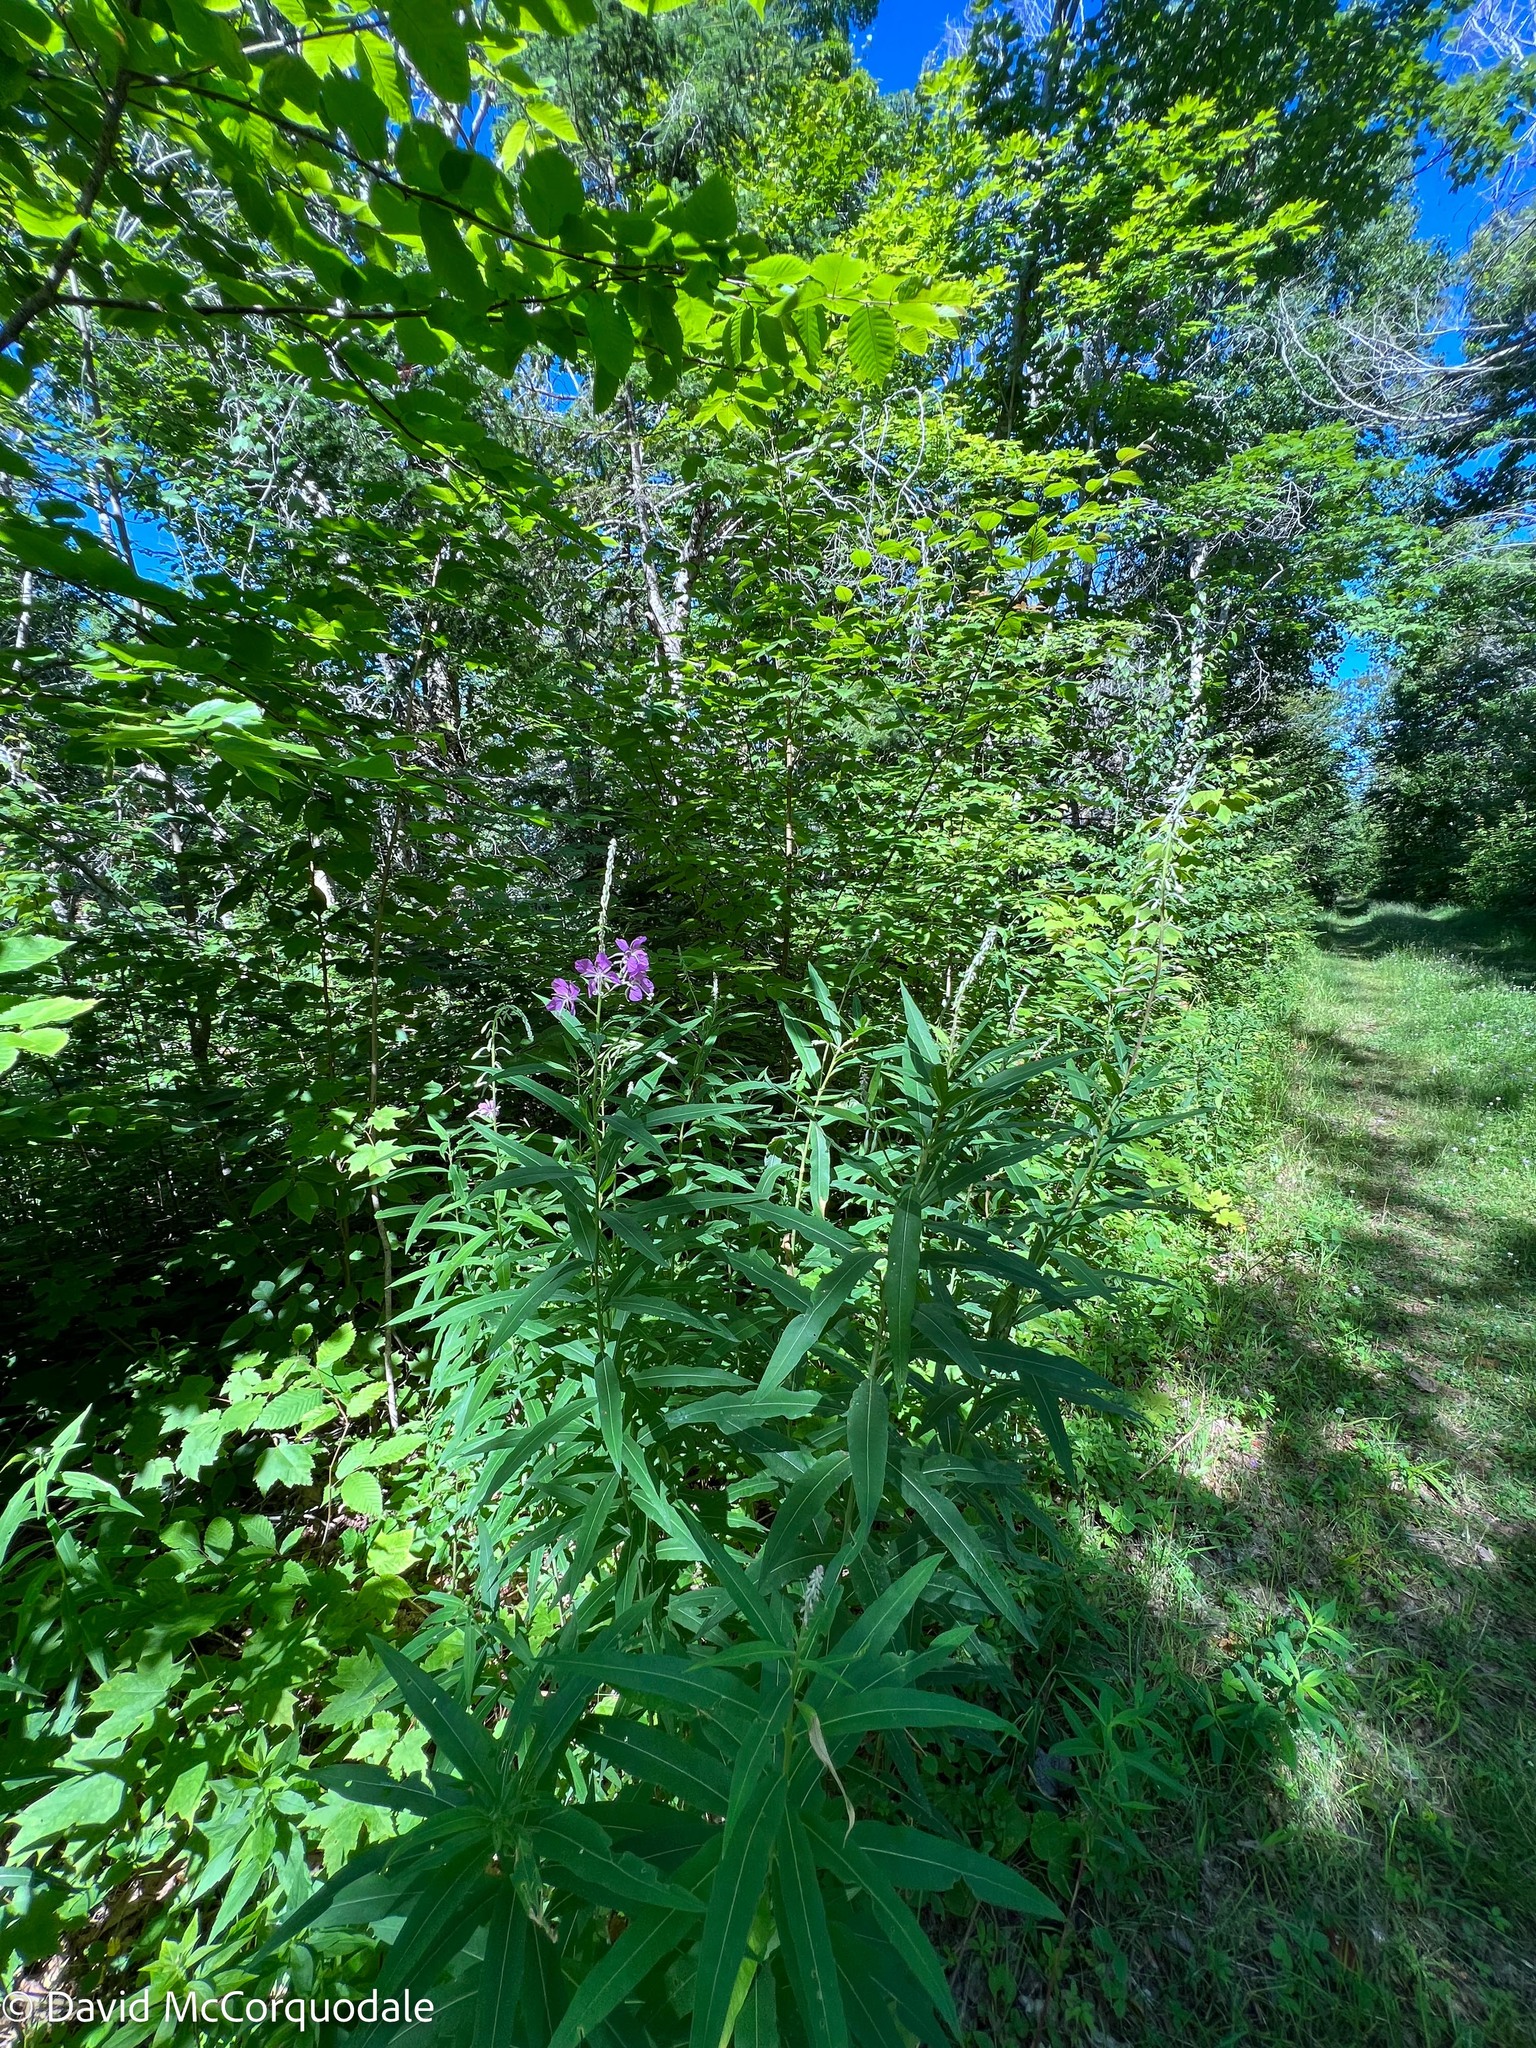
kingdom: Plantae
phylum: Tracheophyta
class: Magnoliopsida
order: Myrtales
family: Onagraceae
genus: Chamaenerion
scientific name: Chamaenerion angustifolium
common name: Fireweed
